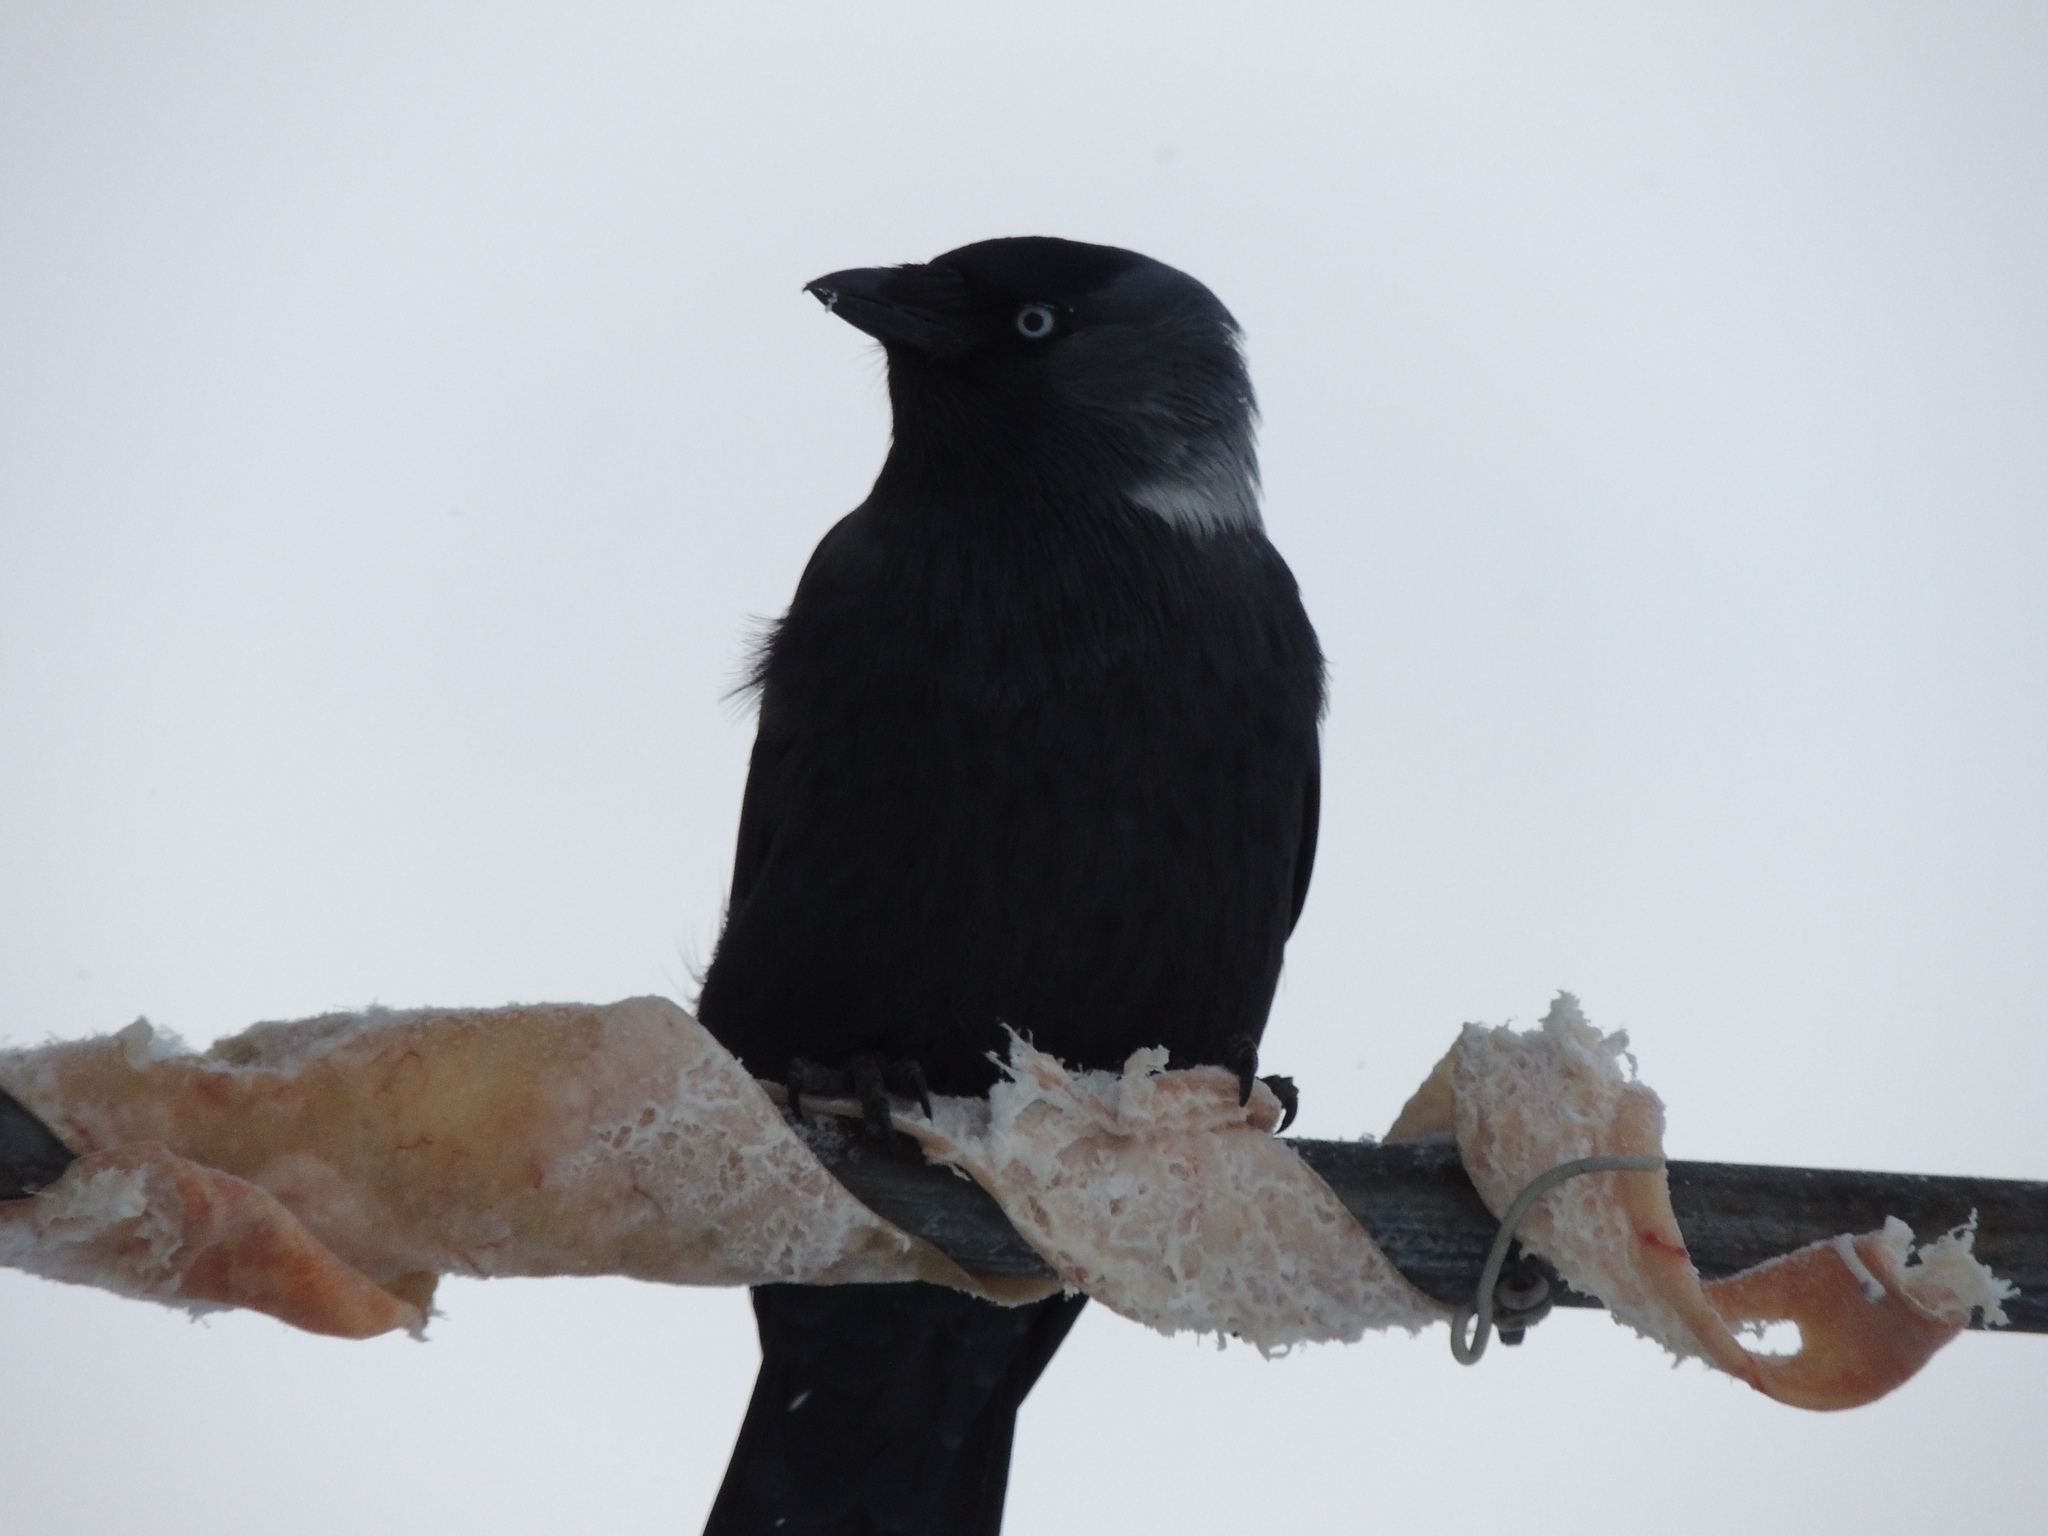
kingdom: Animalia
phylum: Chordata
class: Aves
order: Passeriformes
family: Corvidae
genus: Coloeus
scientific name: Coloeus monedula
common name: Western jackdaw
